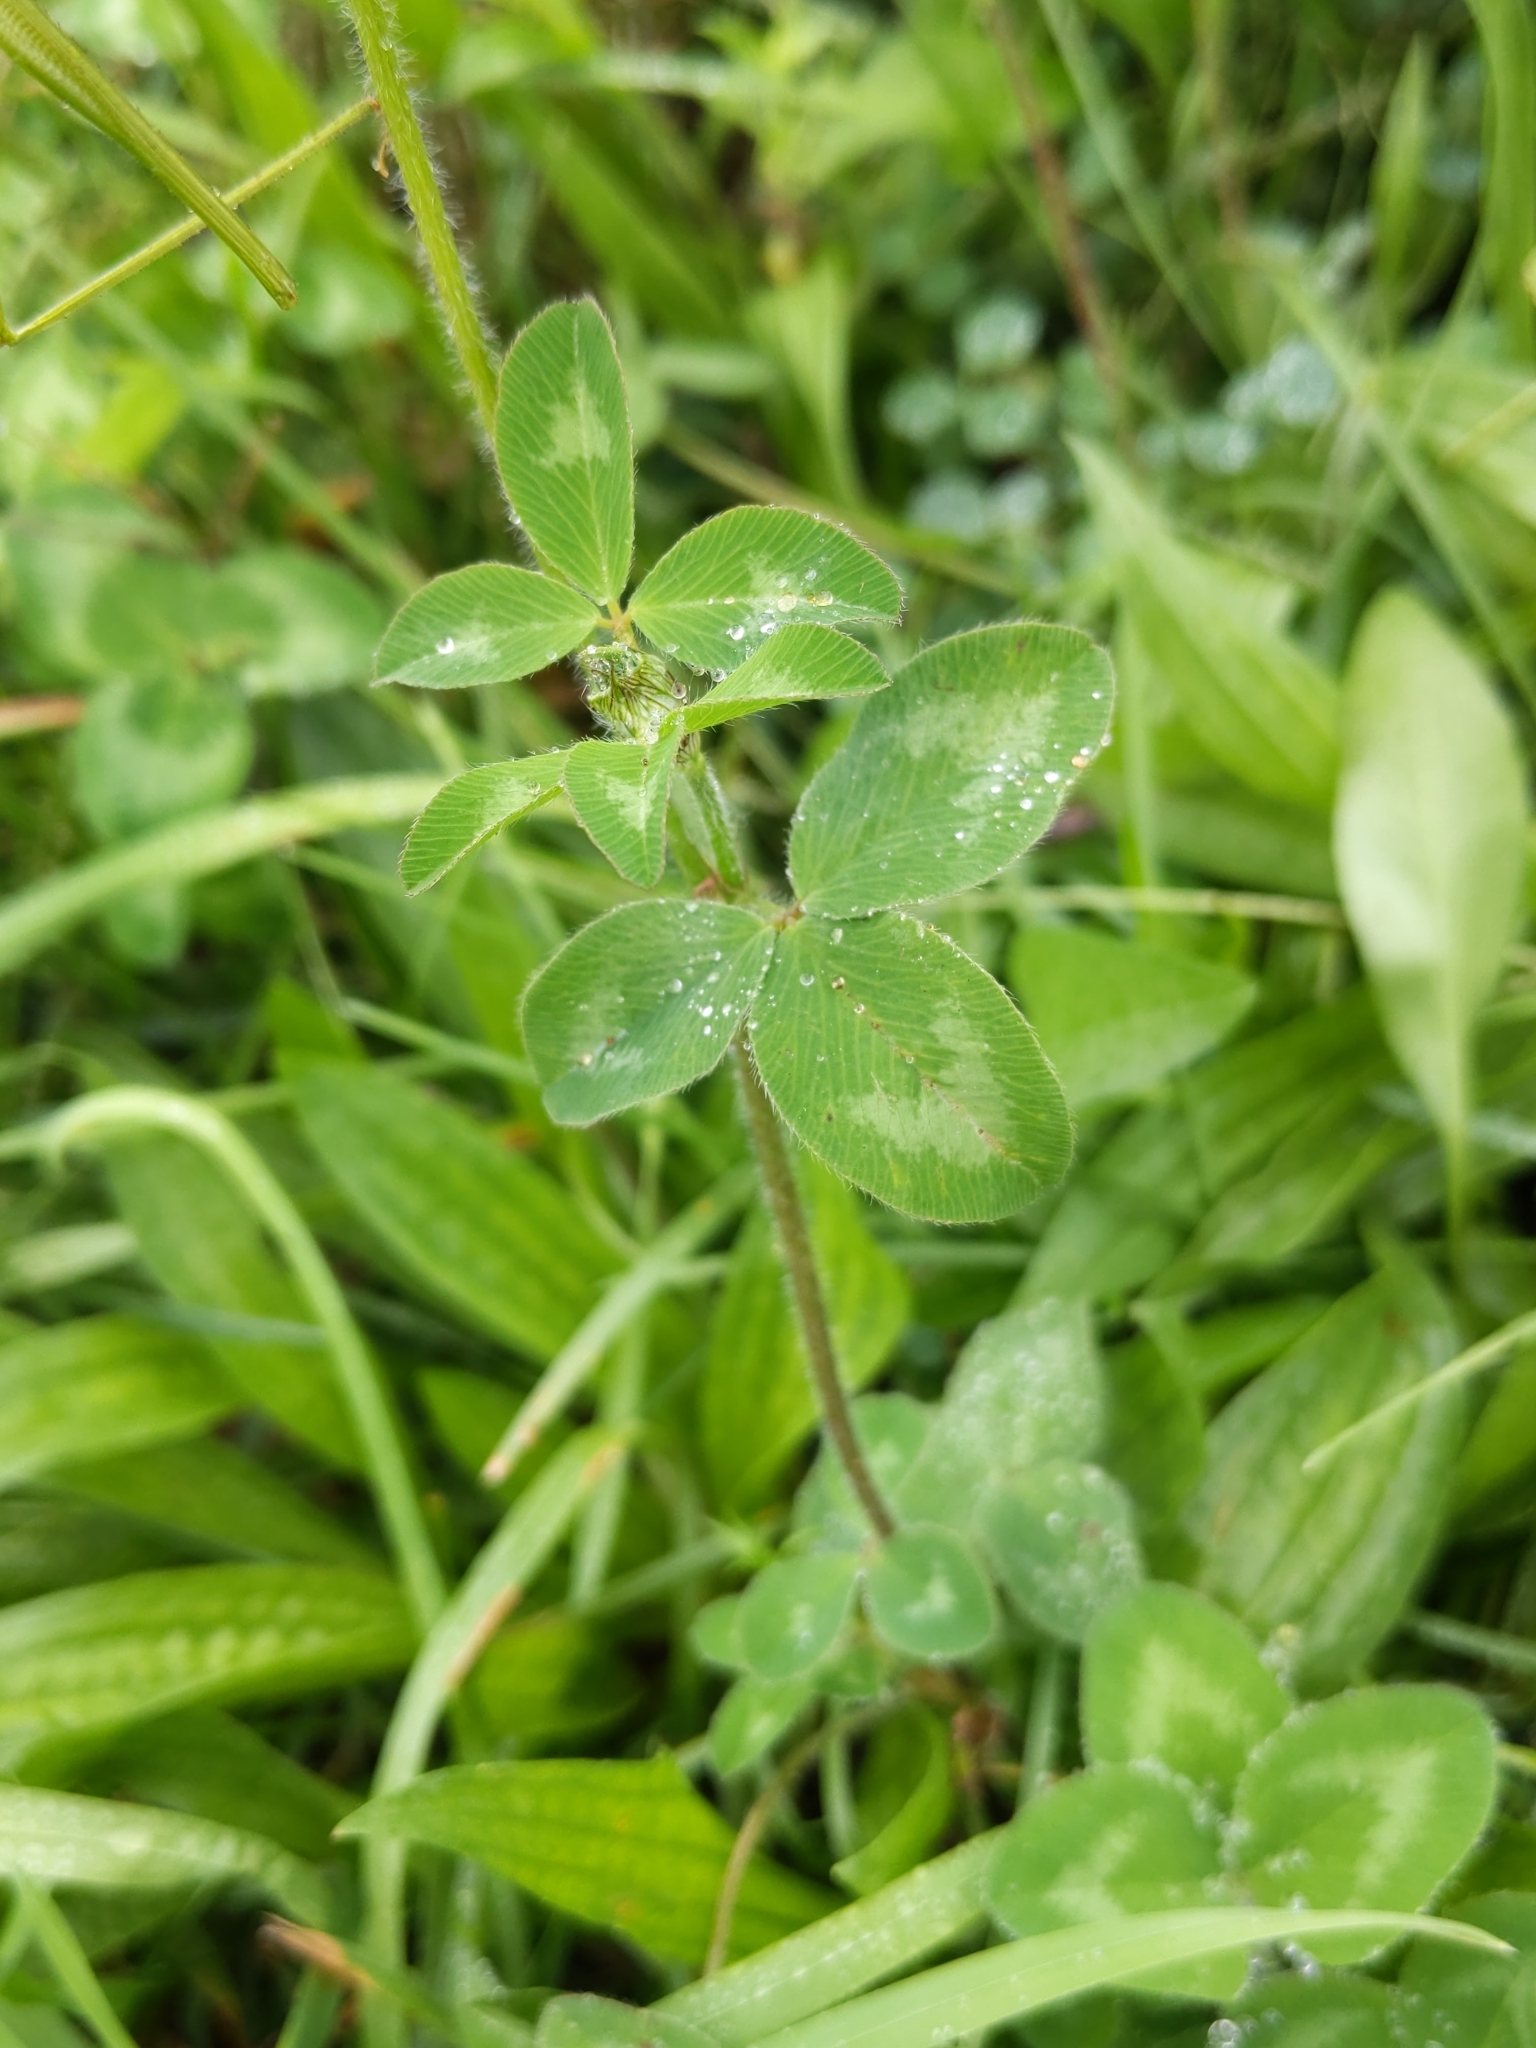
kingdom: Plantae
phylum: Tracheophyta
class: Magnoliopsida
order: Fabales
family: Fabaceae
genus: Trifolium
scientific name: Trifolium pratense
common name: Red clover
